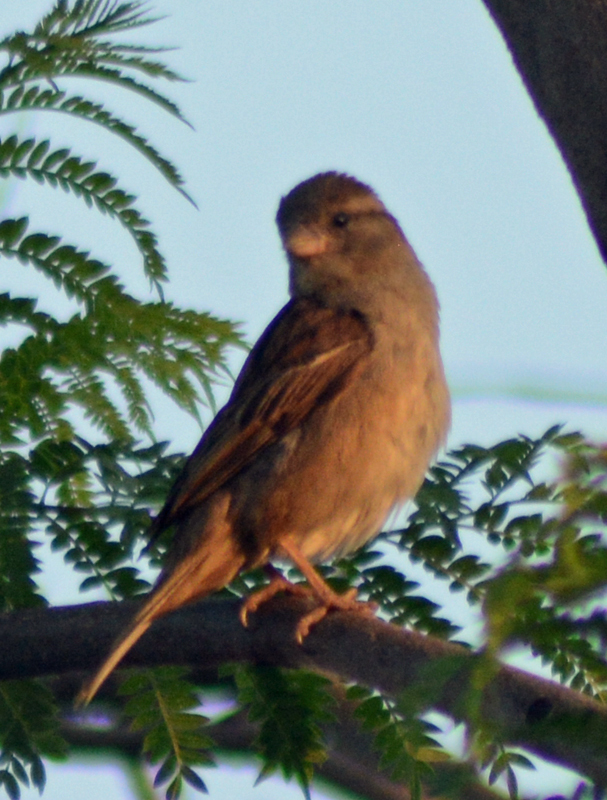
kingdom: Animalia
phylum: Chordata
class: Aves
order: Passeriformes
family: Passeridae
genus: Passer
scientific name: Passer domesticus
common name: House sparrow
